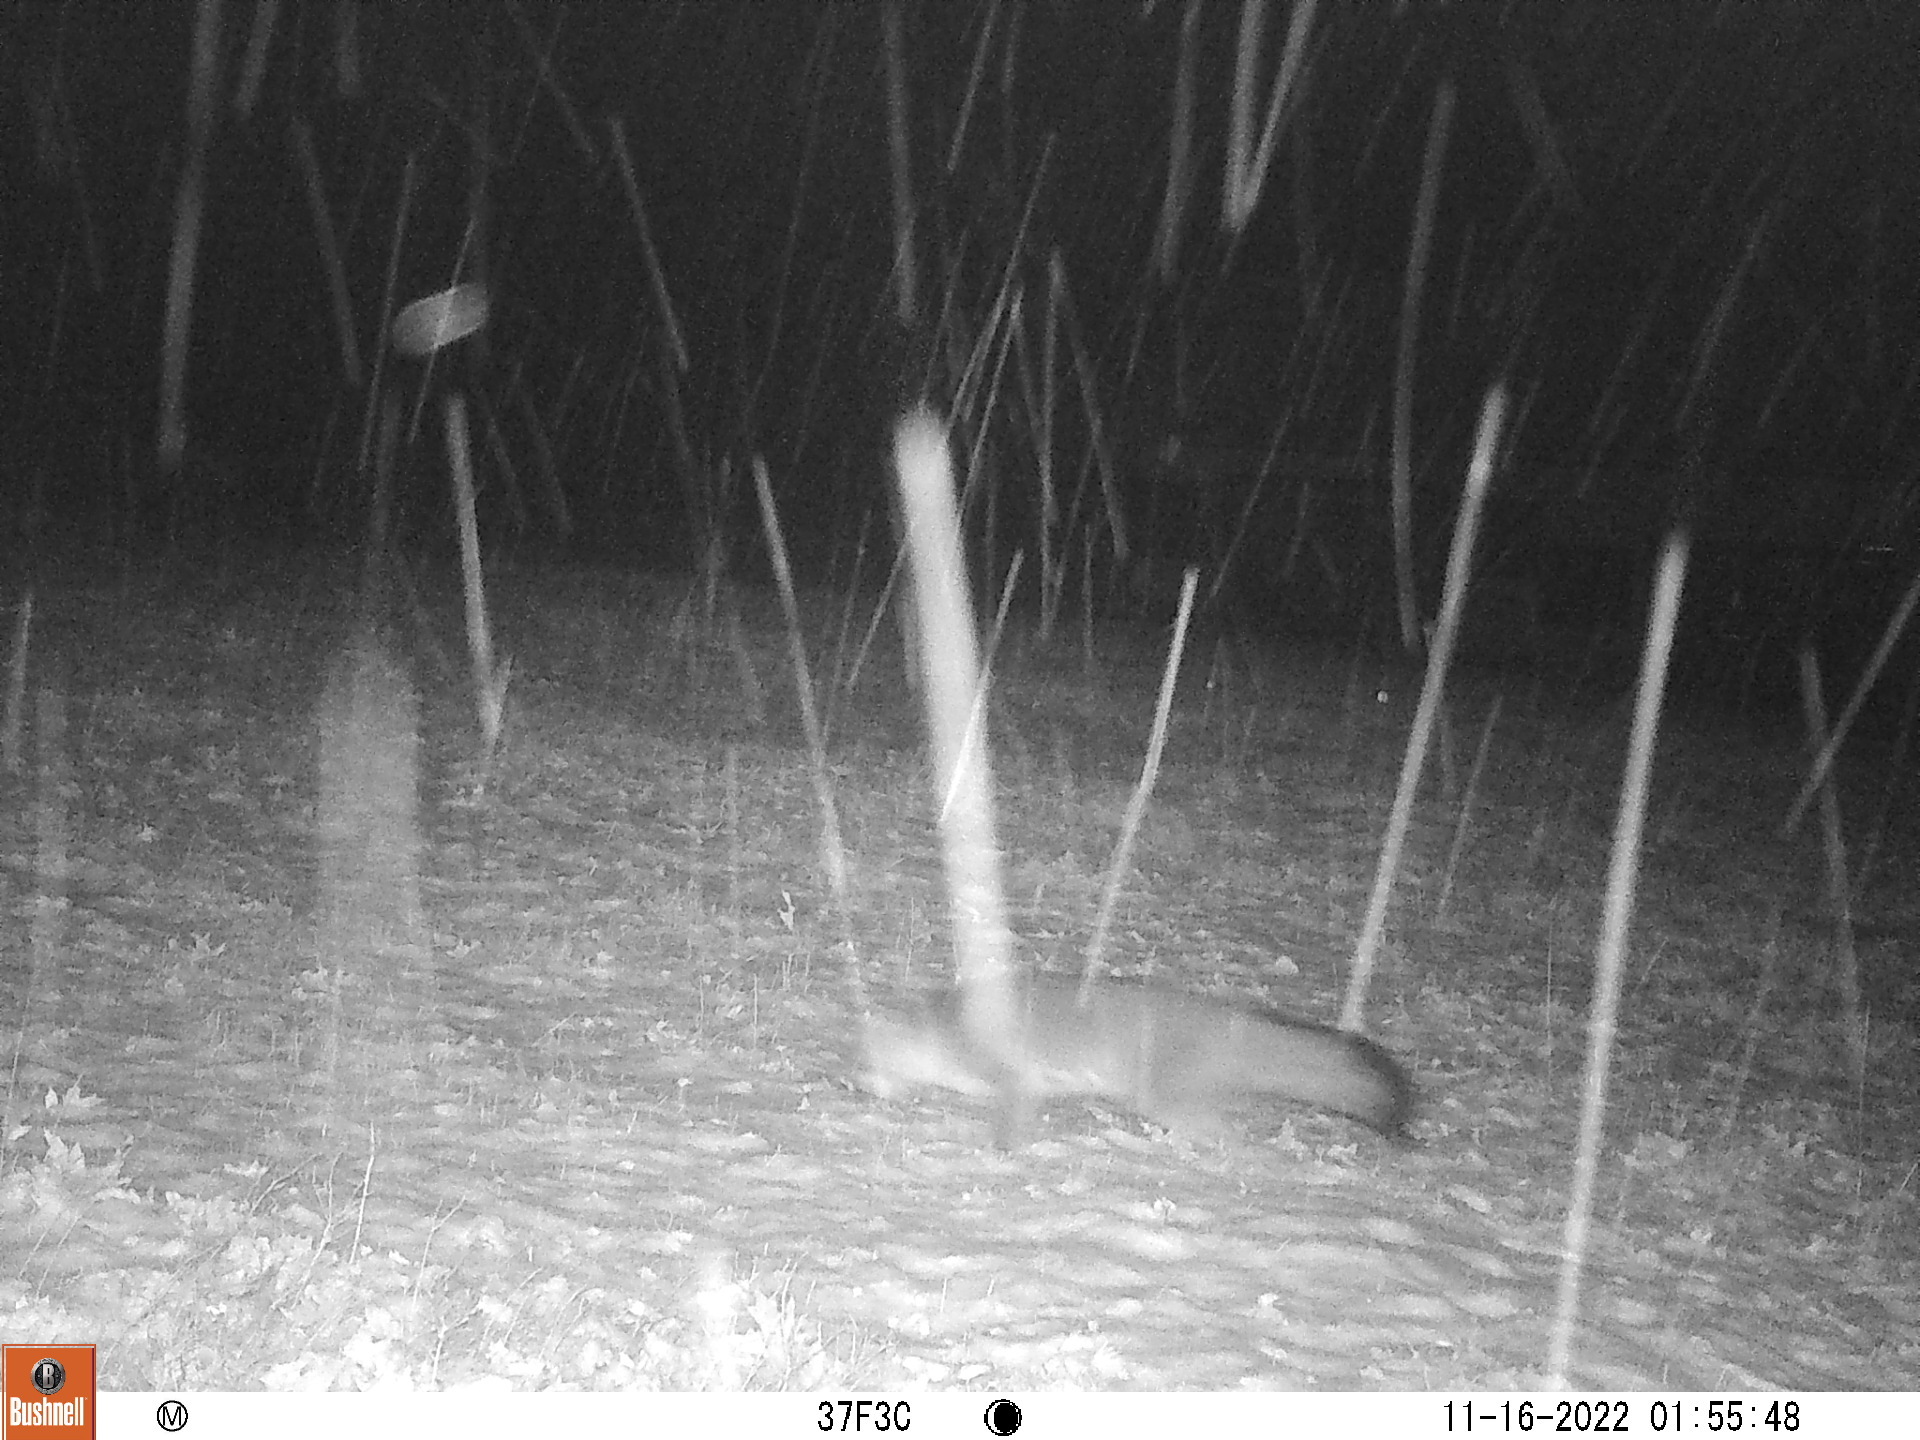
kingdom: Animalia
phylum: Chordata
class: Mammalia
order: Carnivora
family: Canidae
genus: Urocyon
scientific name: Urocyon cinereoargenteus
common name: Gray fox
